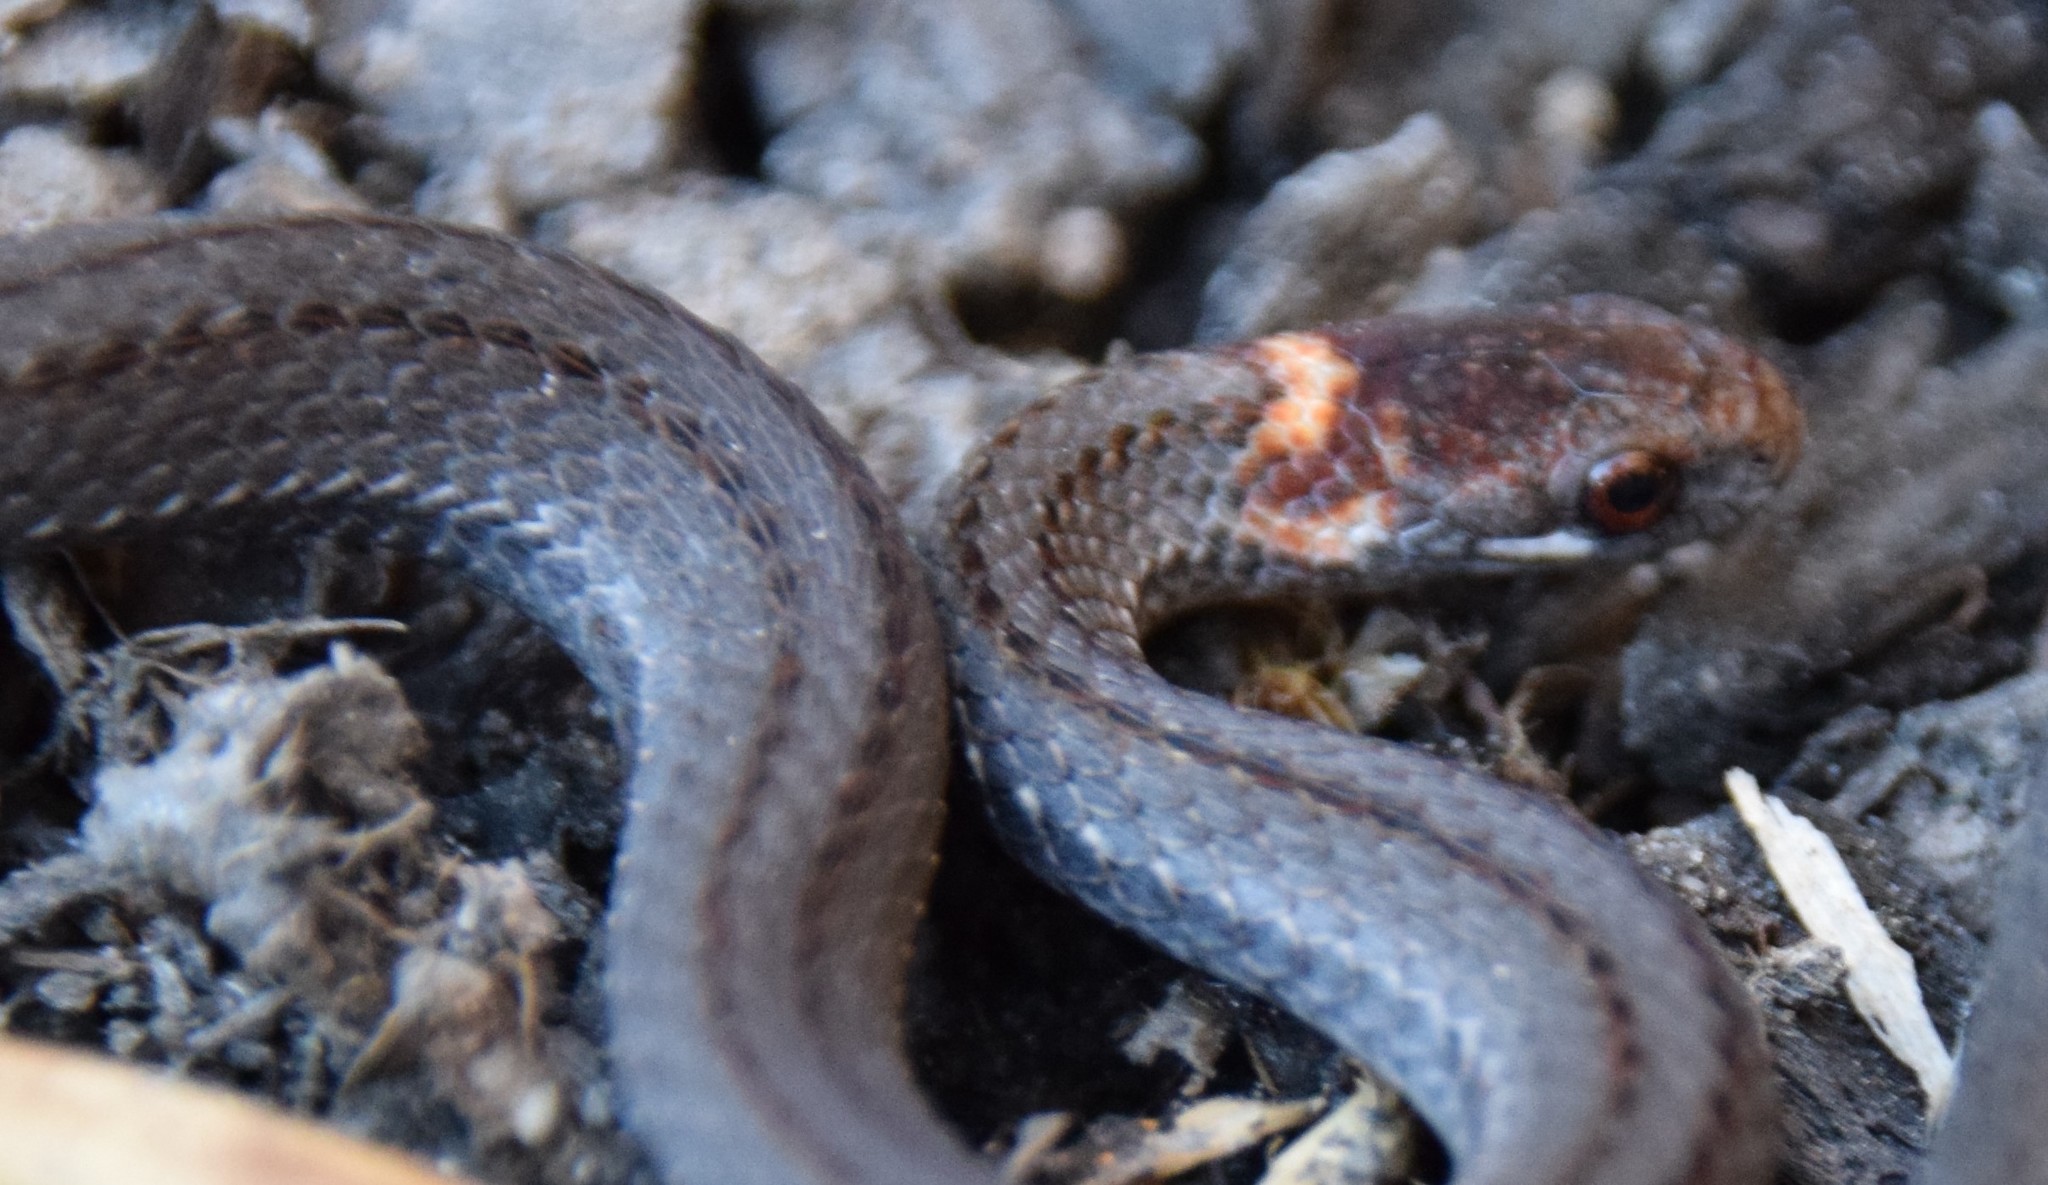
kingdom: Animalia
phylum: Chordata
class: Squamata
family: Colubridae
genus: Storeria
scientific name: Storeria occipitomaculata
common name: Redbelly snake
